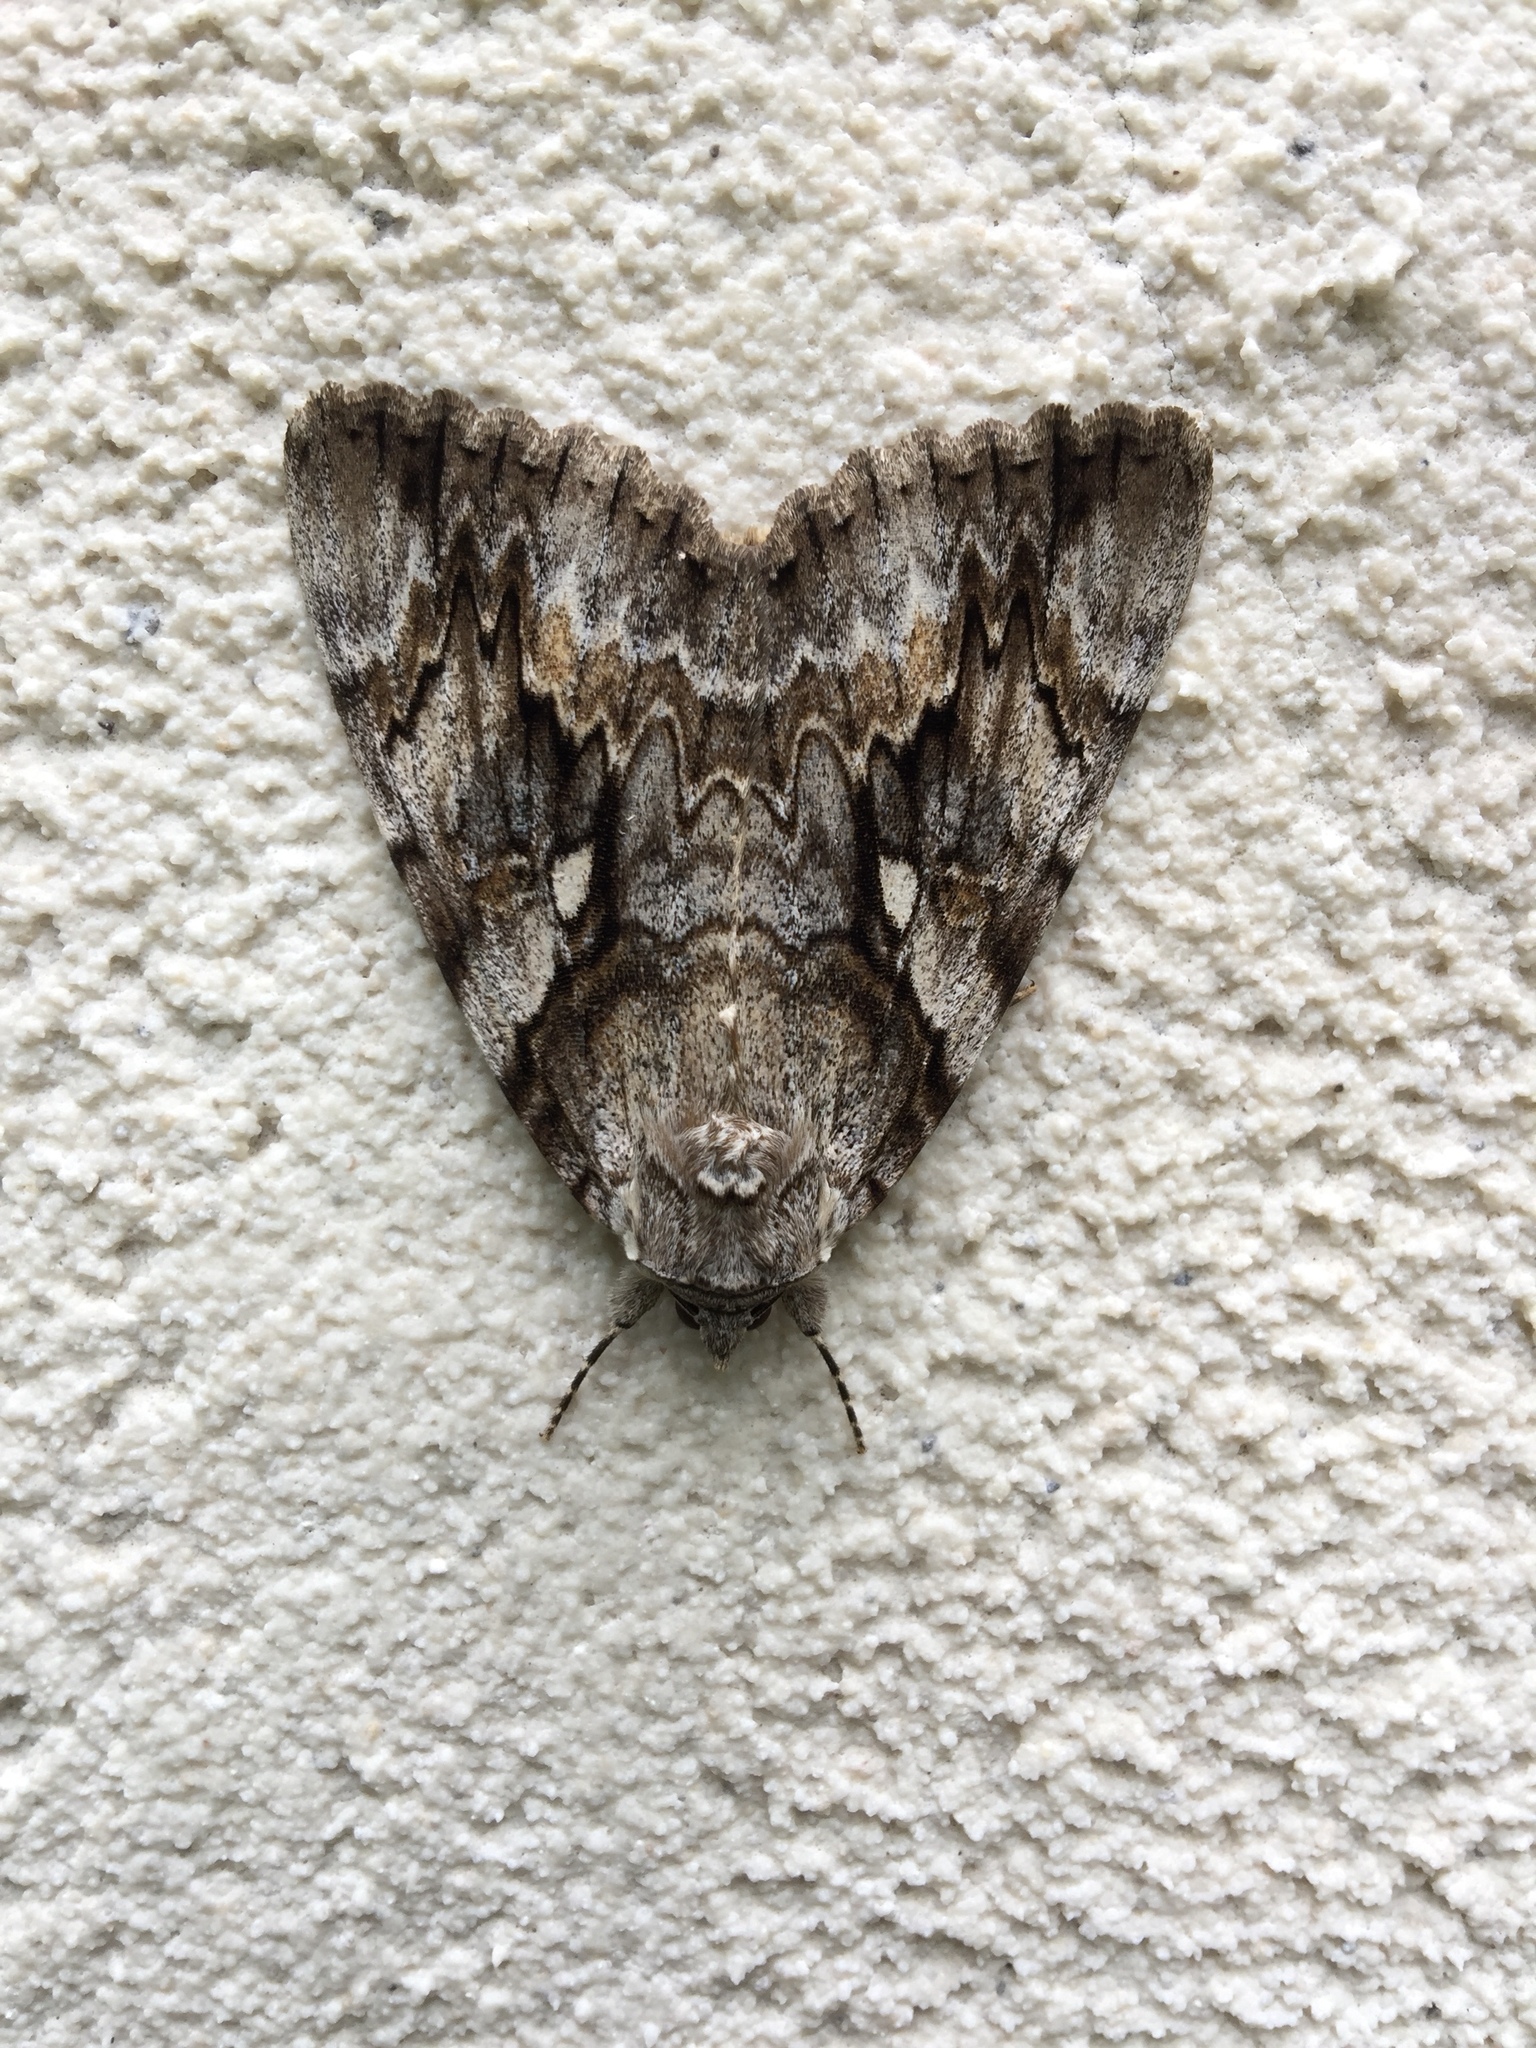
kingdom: Animalia
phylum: Arthropoda
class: Insecta
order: Lepidoptera
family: Erebidae
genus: Catocala
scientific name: Catocala cerogama
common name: Yellow banded underwing
